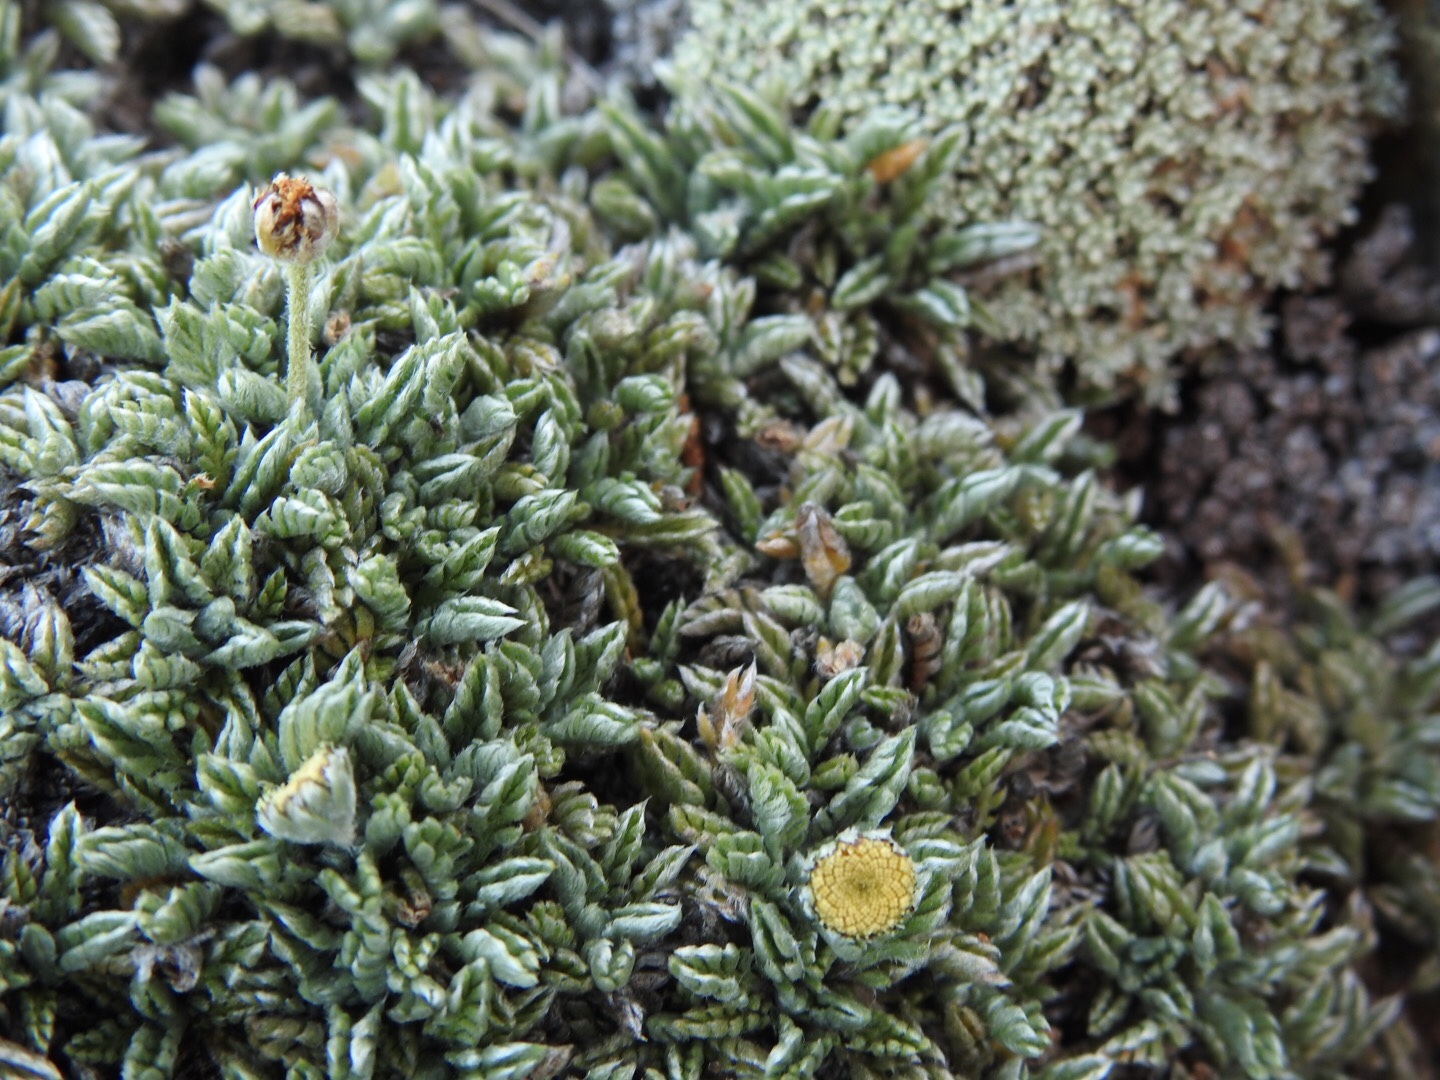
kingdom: Plantae
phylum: Tracheophyta
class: Magnoliopsida
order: Asterales
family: Asteraceae
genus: Leptinella
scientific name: Leptinella pectinata
